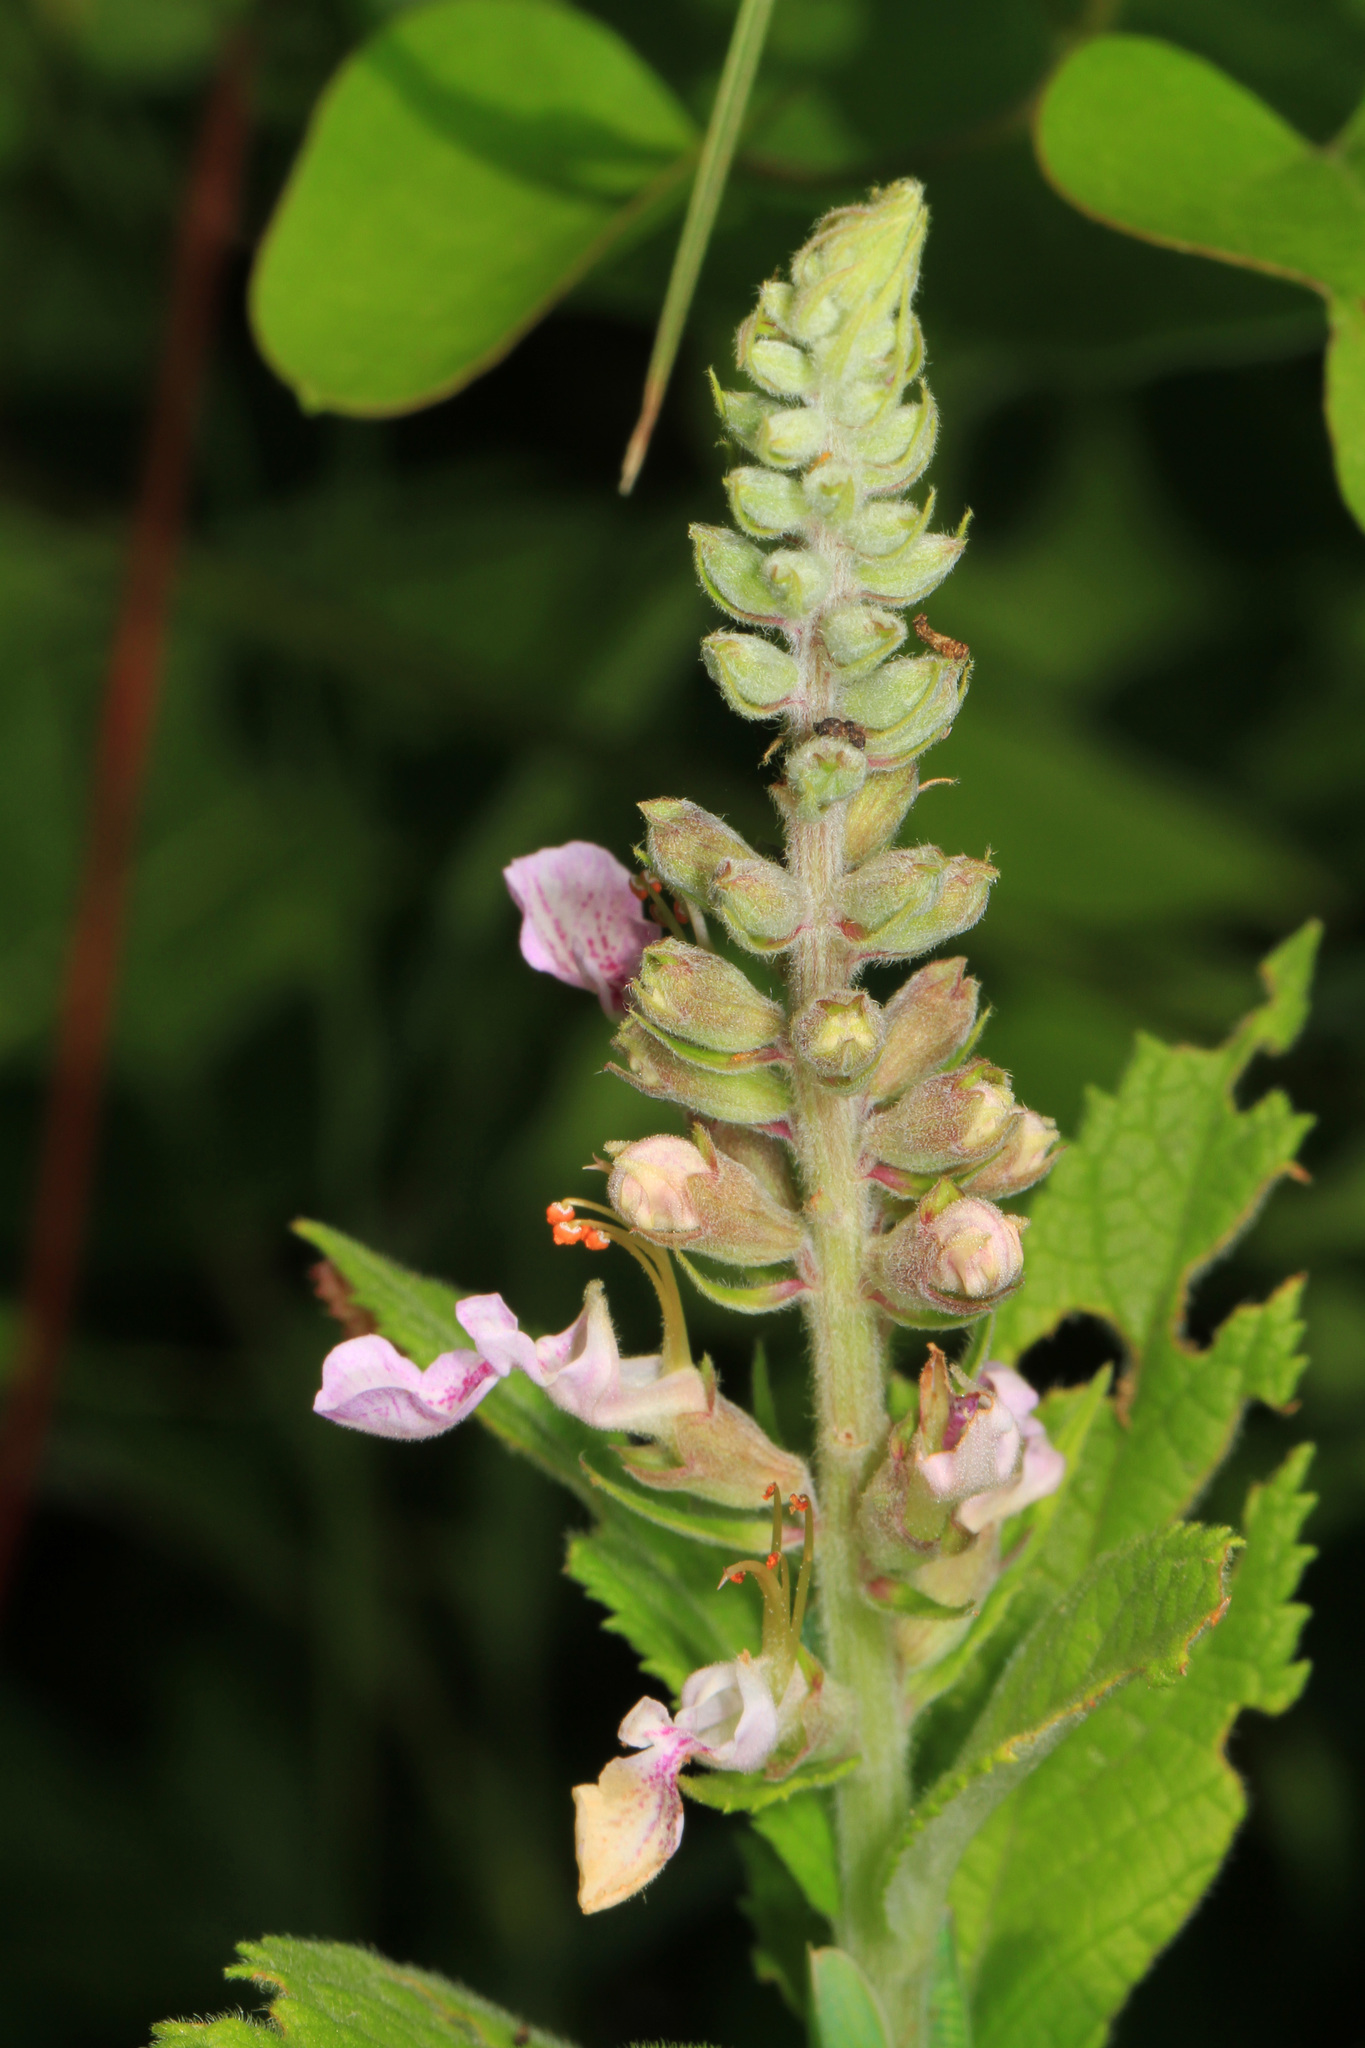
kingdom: Plantae
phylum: Tracheophyta
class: Magnoliopsida
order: Lamiales
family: Lamiaceae
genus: Teucrium
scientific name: Teucrium canadense
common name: American germander
